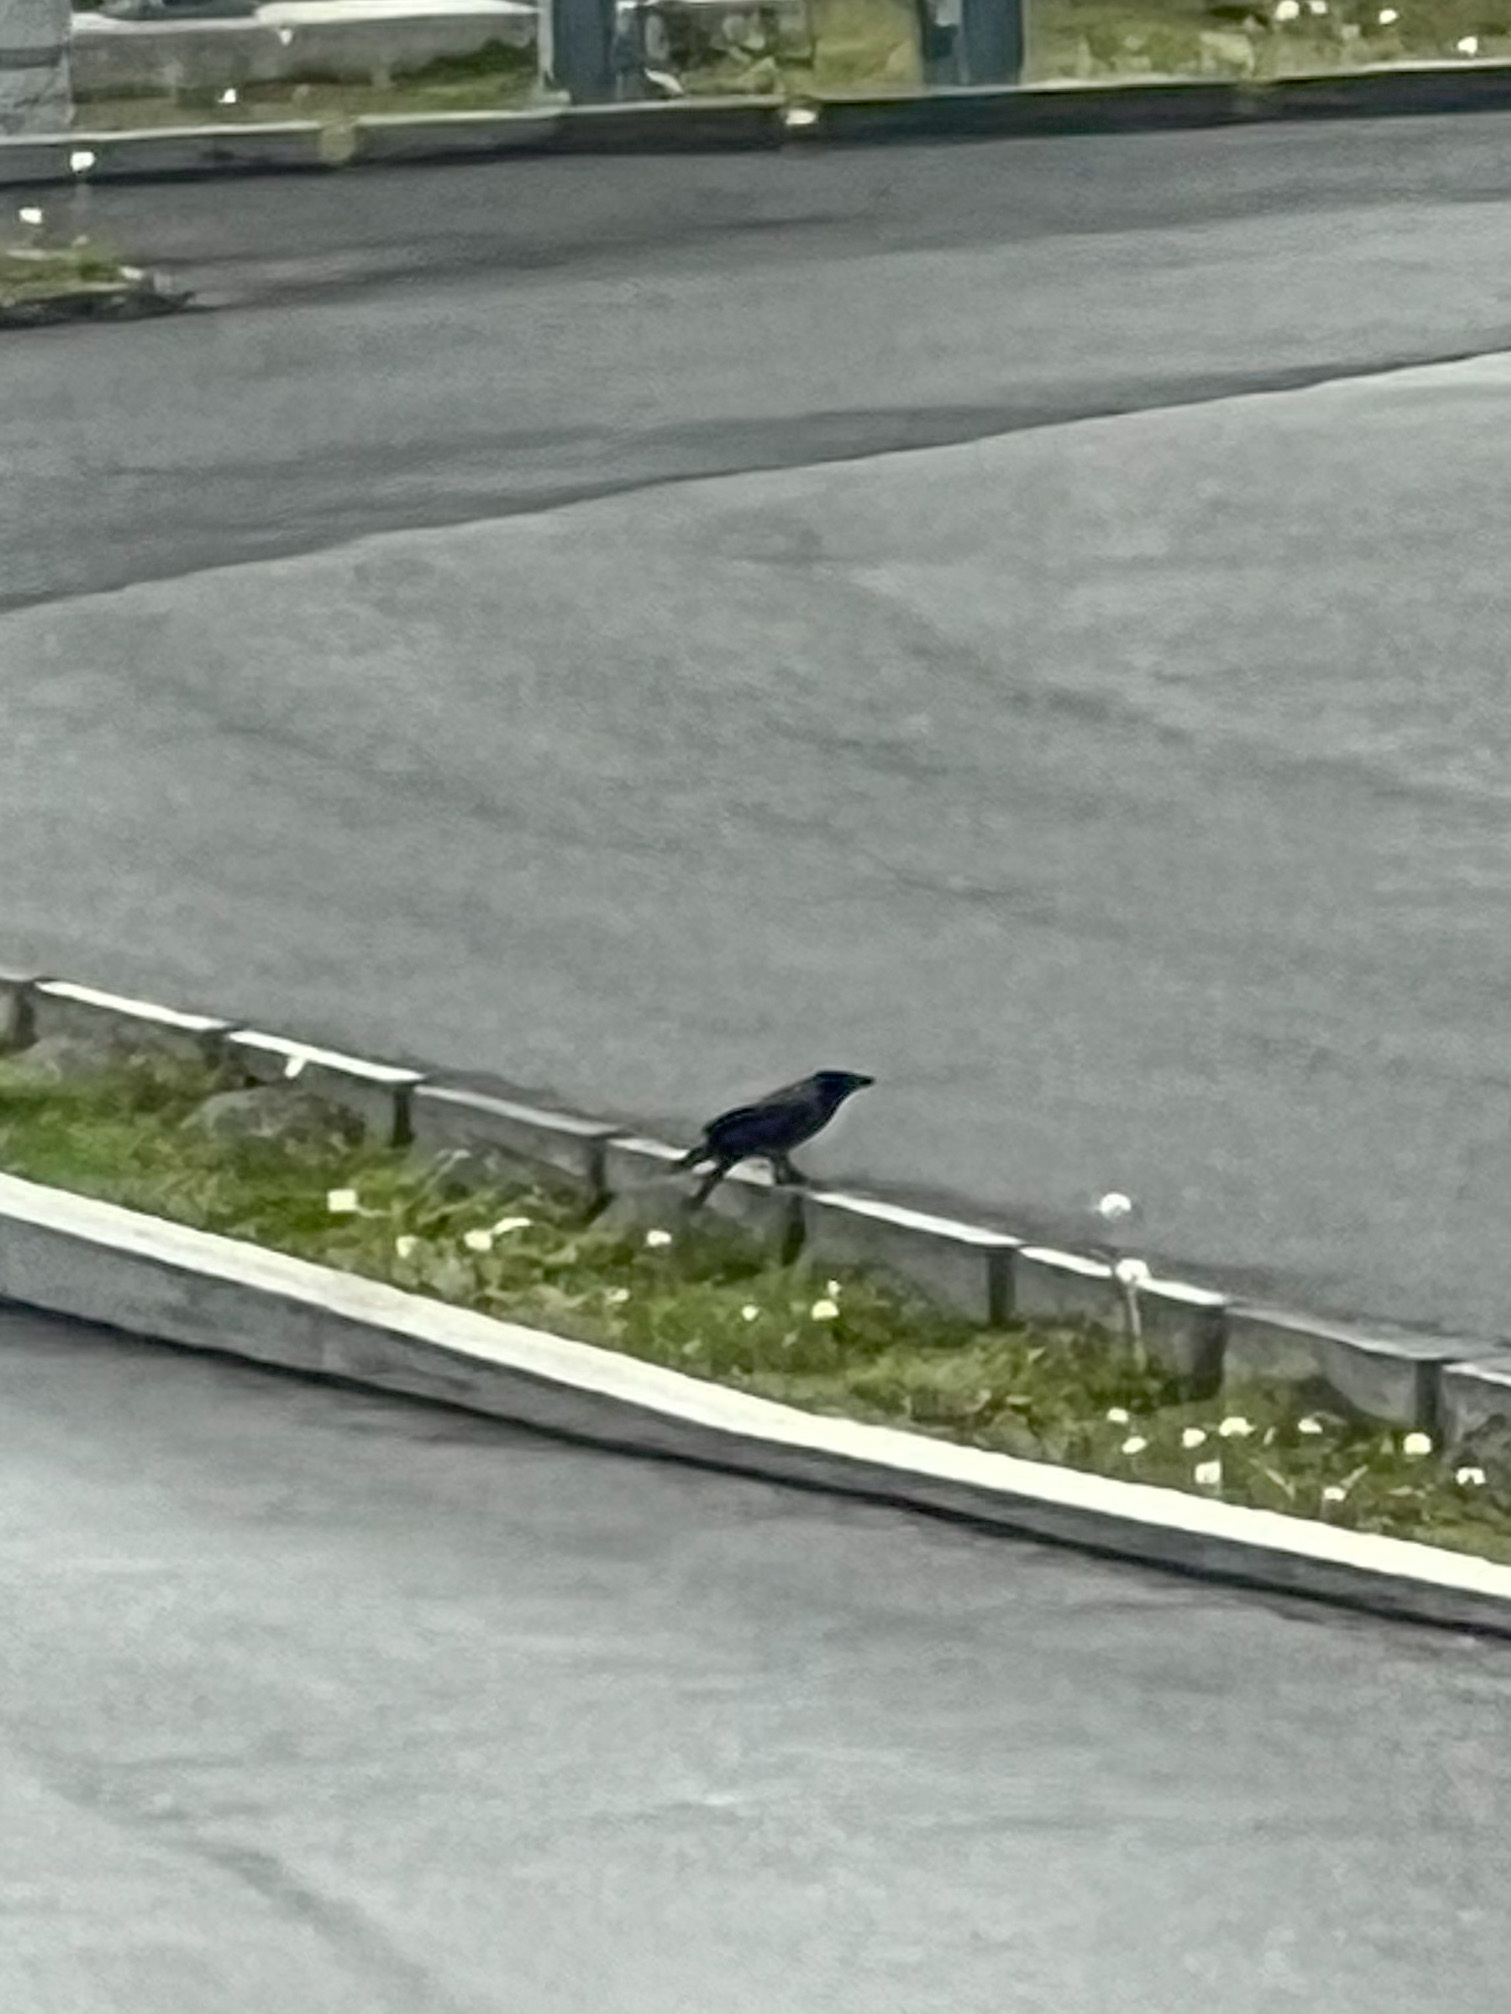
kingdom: Animalia
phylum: Chordata
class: Aves
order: Passeriformes
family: Corvidae
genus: Corvus
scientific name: Corvus cornix
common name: Hooded crow
